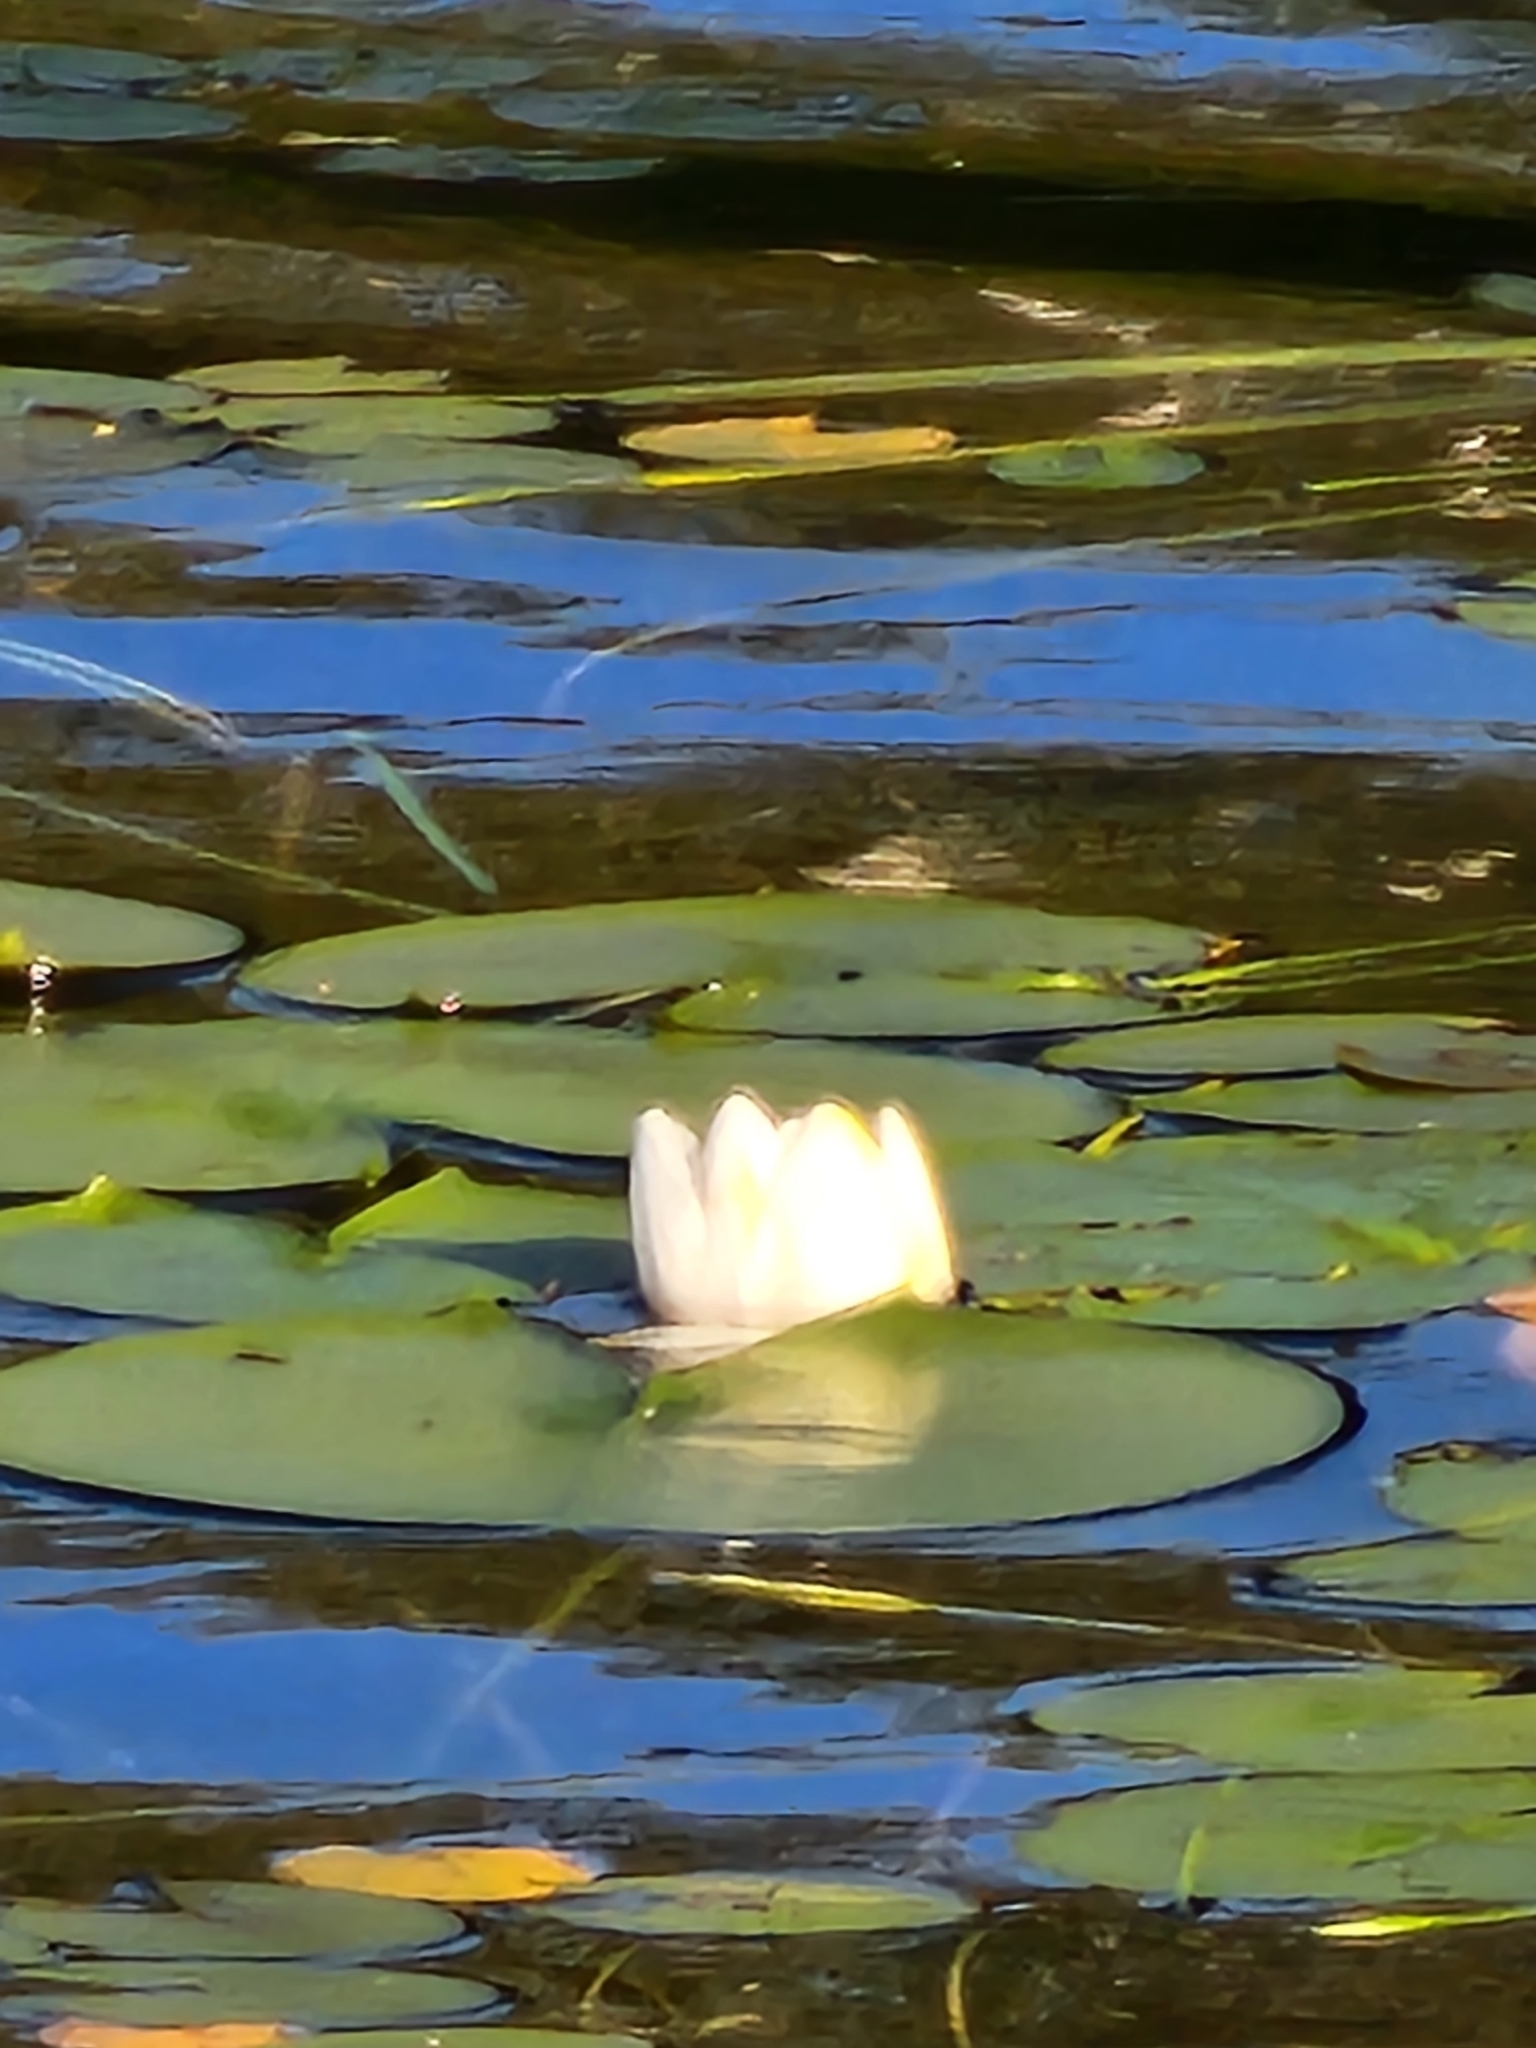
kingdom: Plantae
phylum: Tracheophyta
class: Magnoliopsida
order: Nymphaeales
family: Nymphaeaceae
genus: Nymphaea
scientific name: Nymphaea odorata
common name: Fragrant water-lily
